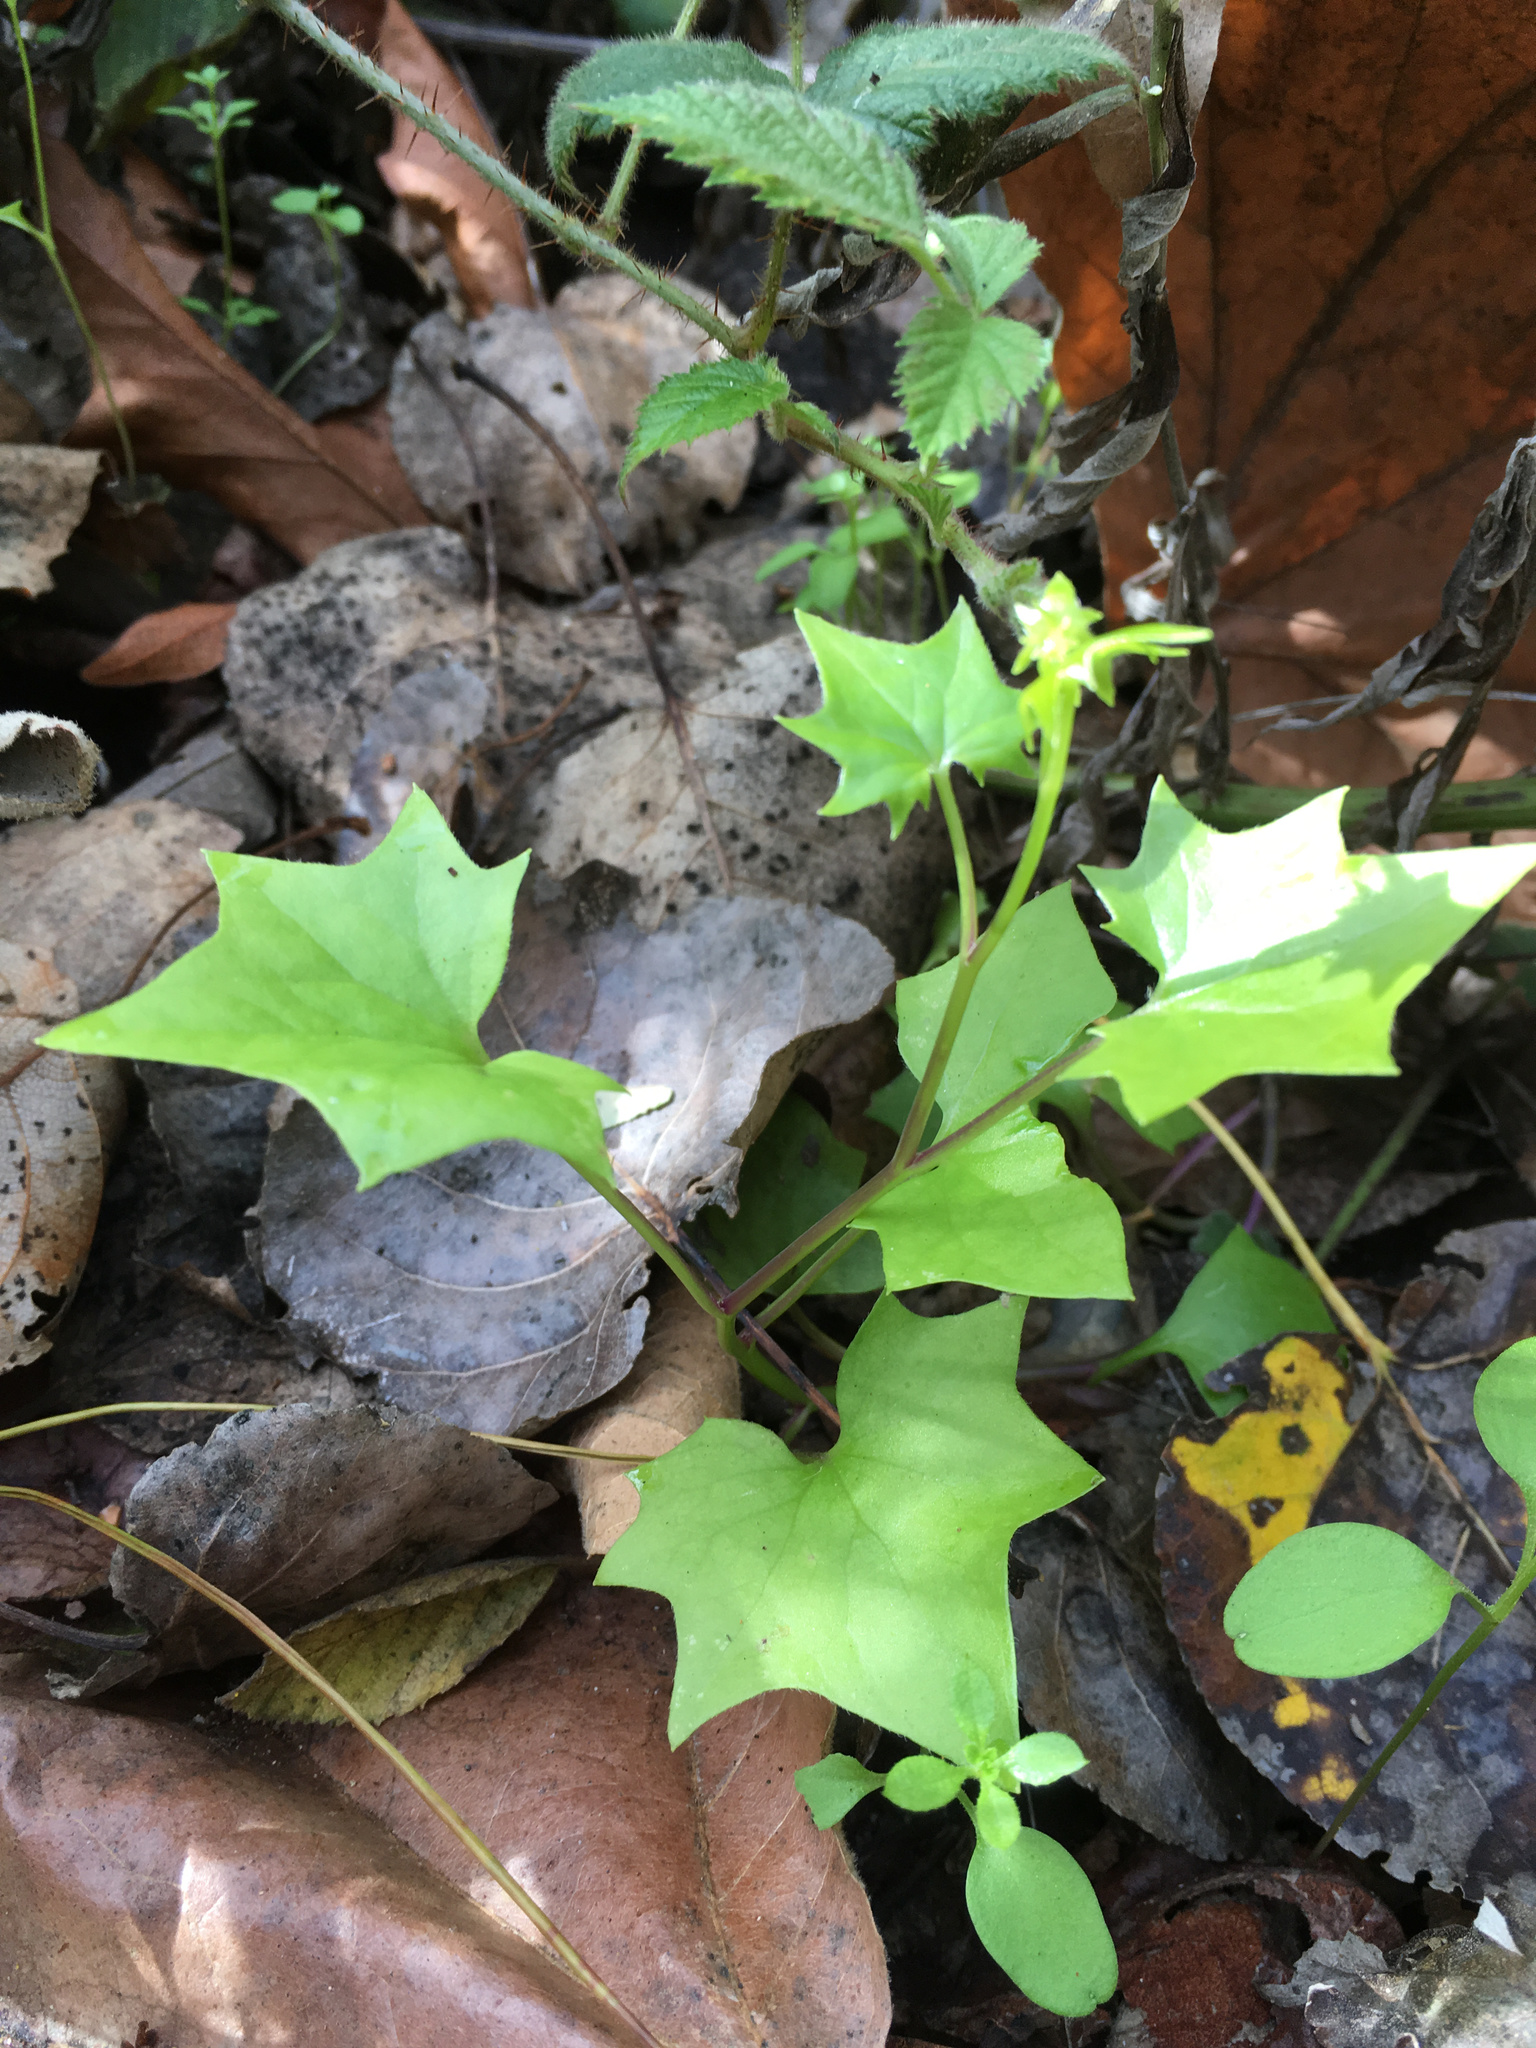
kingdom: Plantae
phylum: Tracheophyta
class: Magnoliopsida
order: Asterales
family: Asteraceae
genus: Delairea
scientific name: Delairea odorata
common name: Cape-ivy
